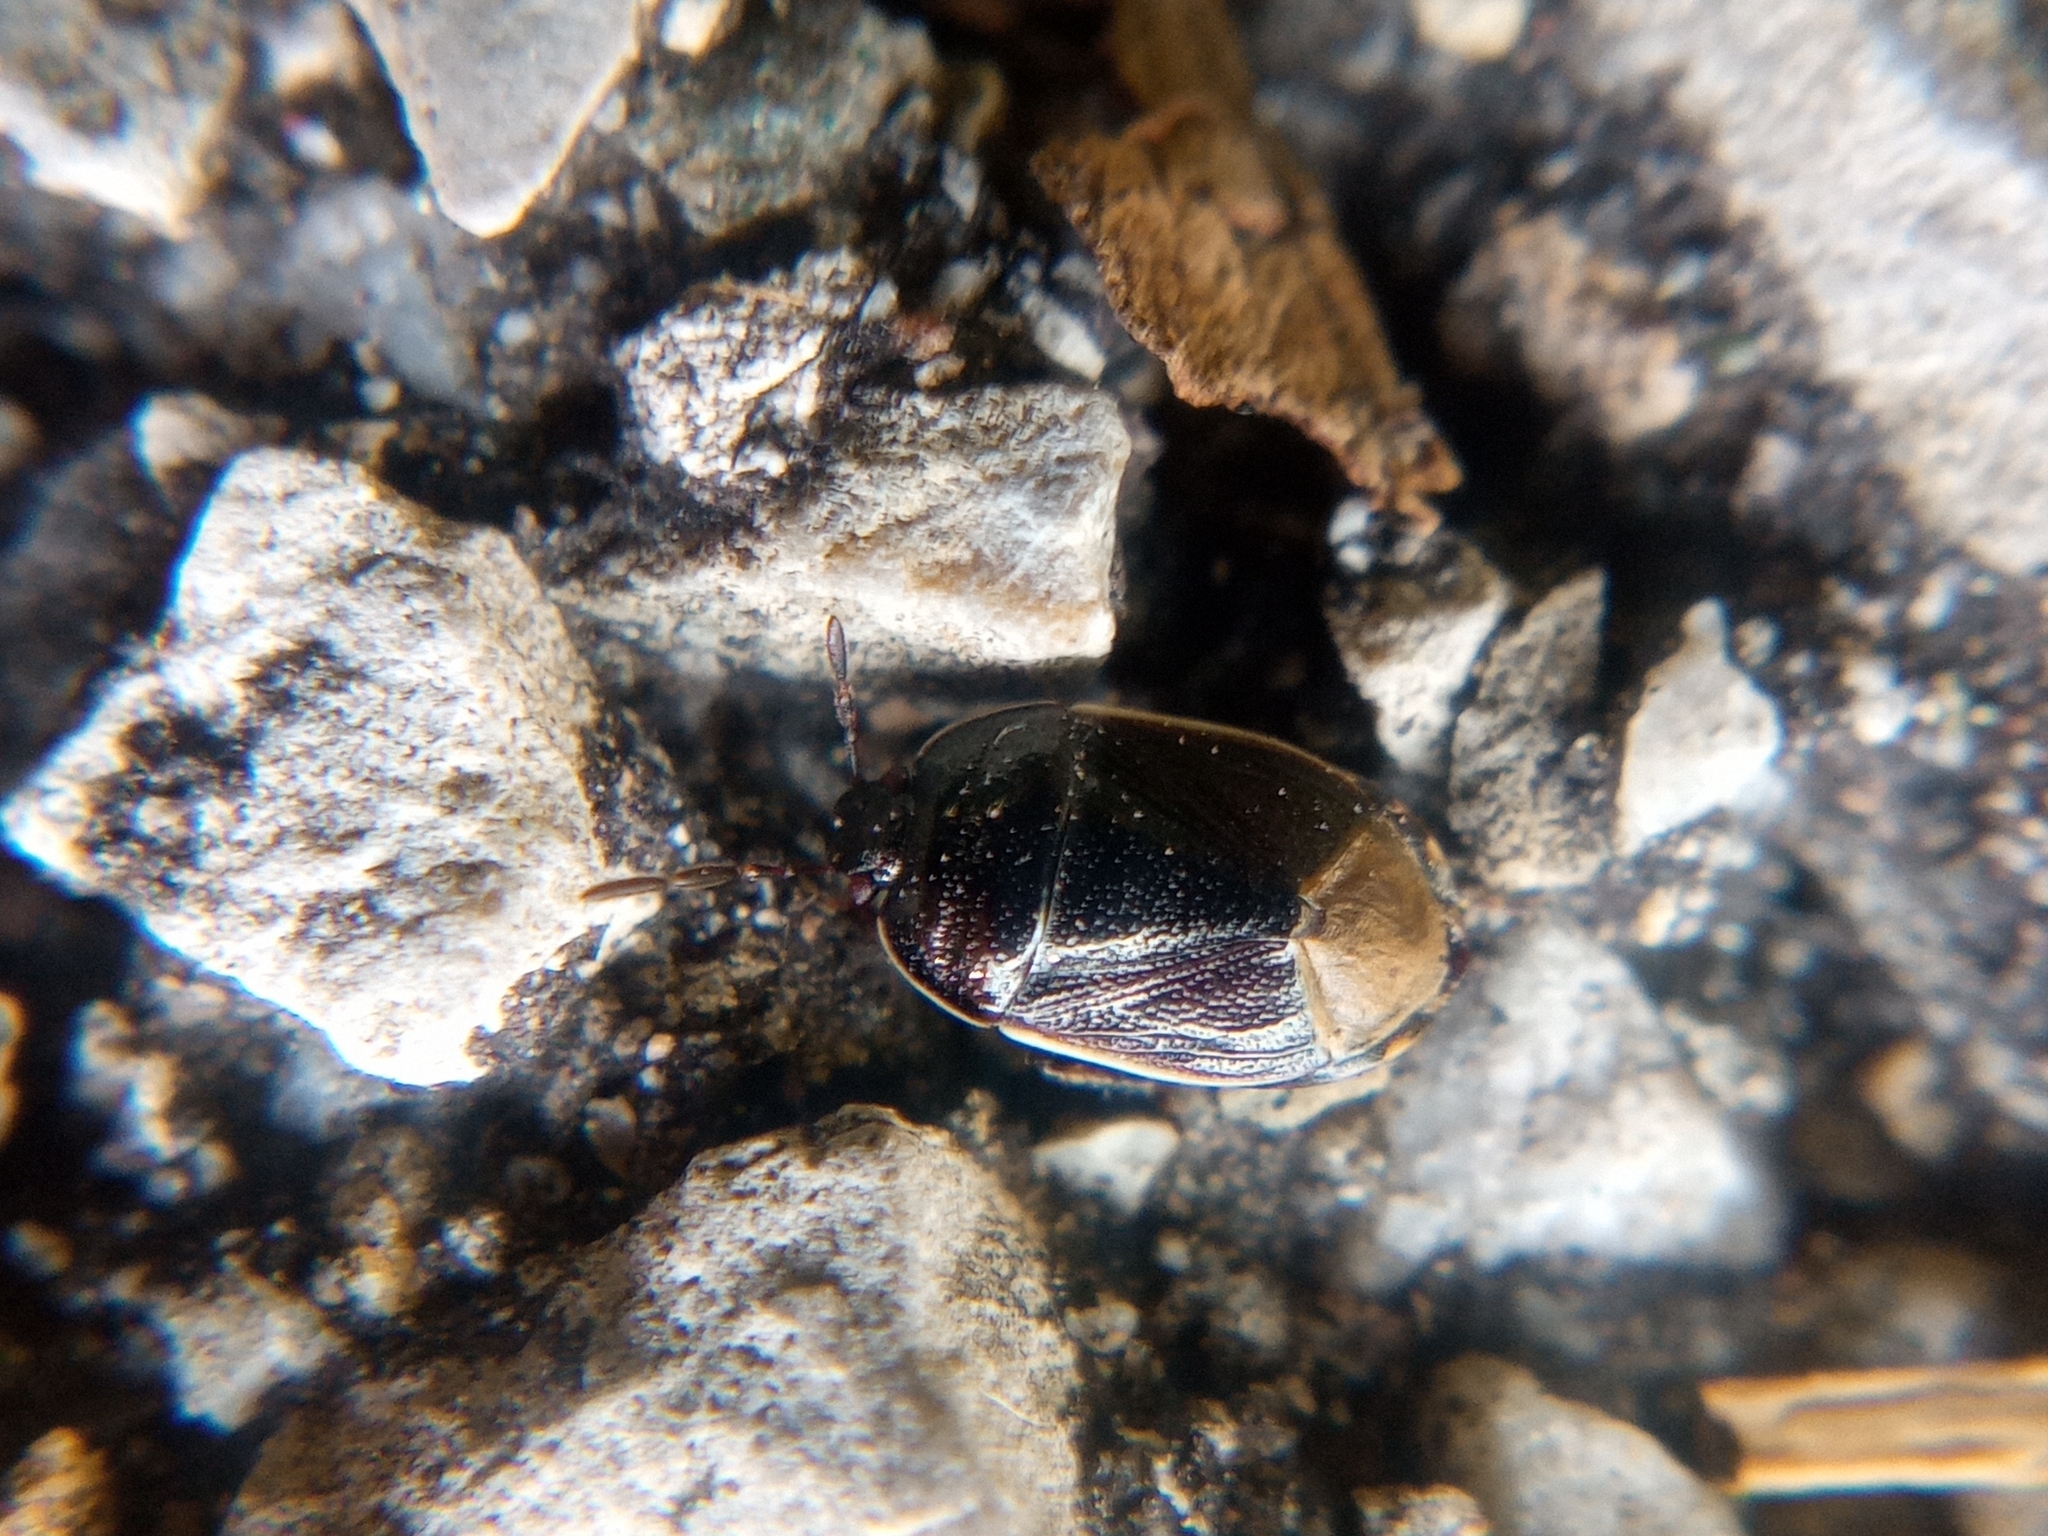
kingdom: Animalia
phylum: Arthropoda
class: Insecta
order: Hemiptera
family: Cydnidae
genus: Adomerus
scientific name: Adomerus fuscipennis
